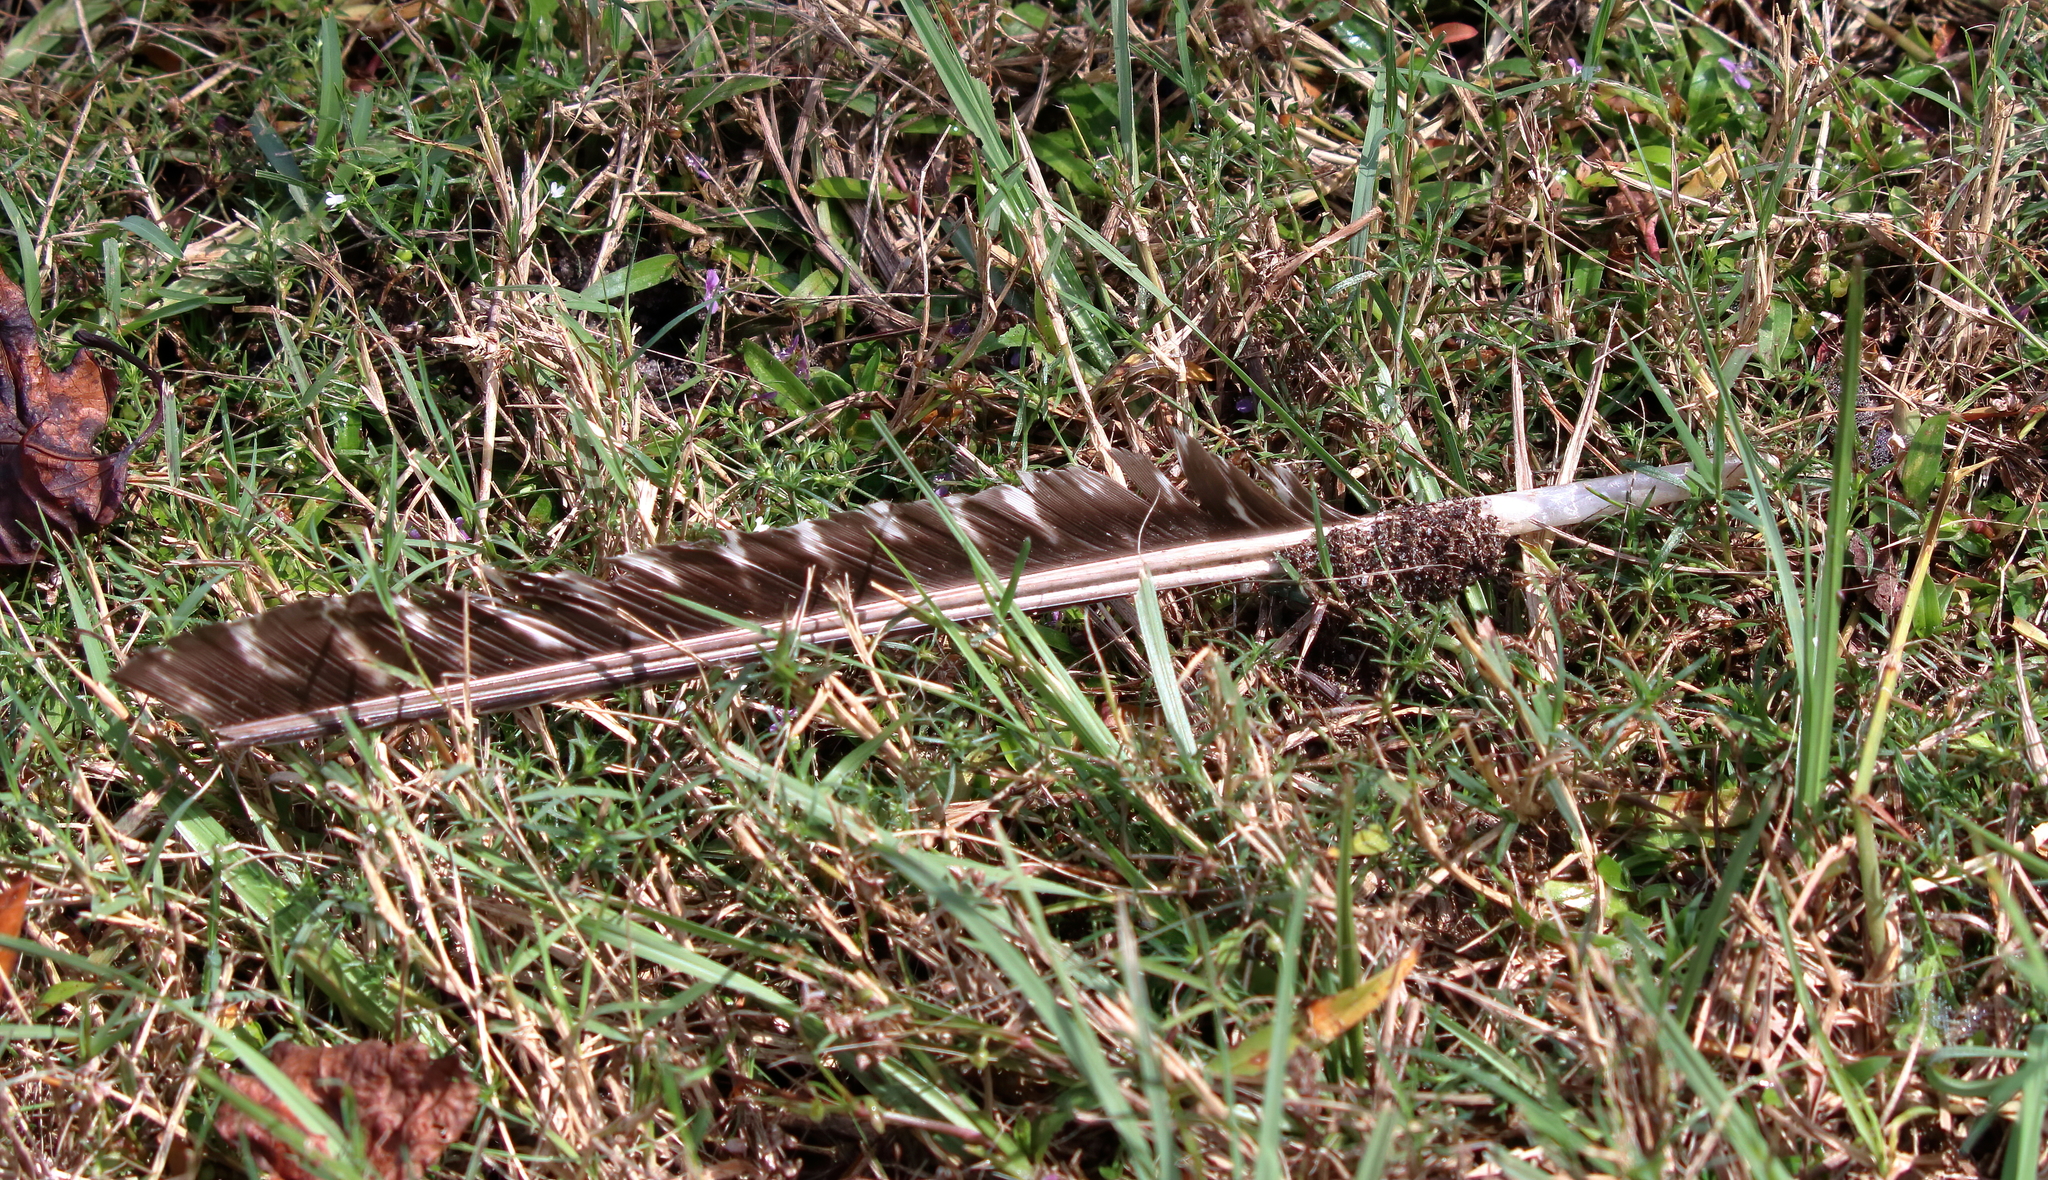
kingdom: Animalia
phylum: Chordata
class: Aves
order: Galliformes
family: Phasianidae
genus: Meleagris
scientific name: Meleagris gallopavo
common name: Wild turkey
